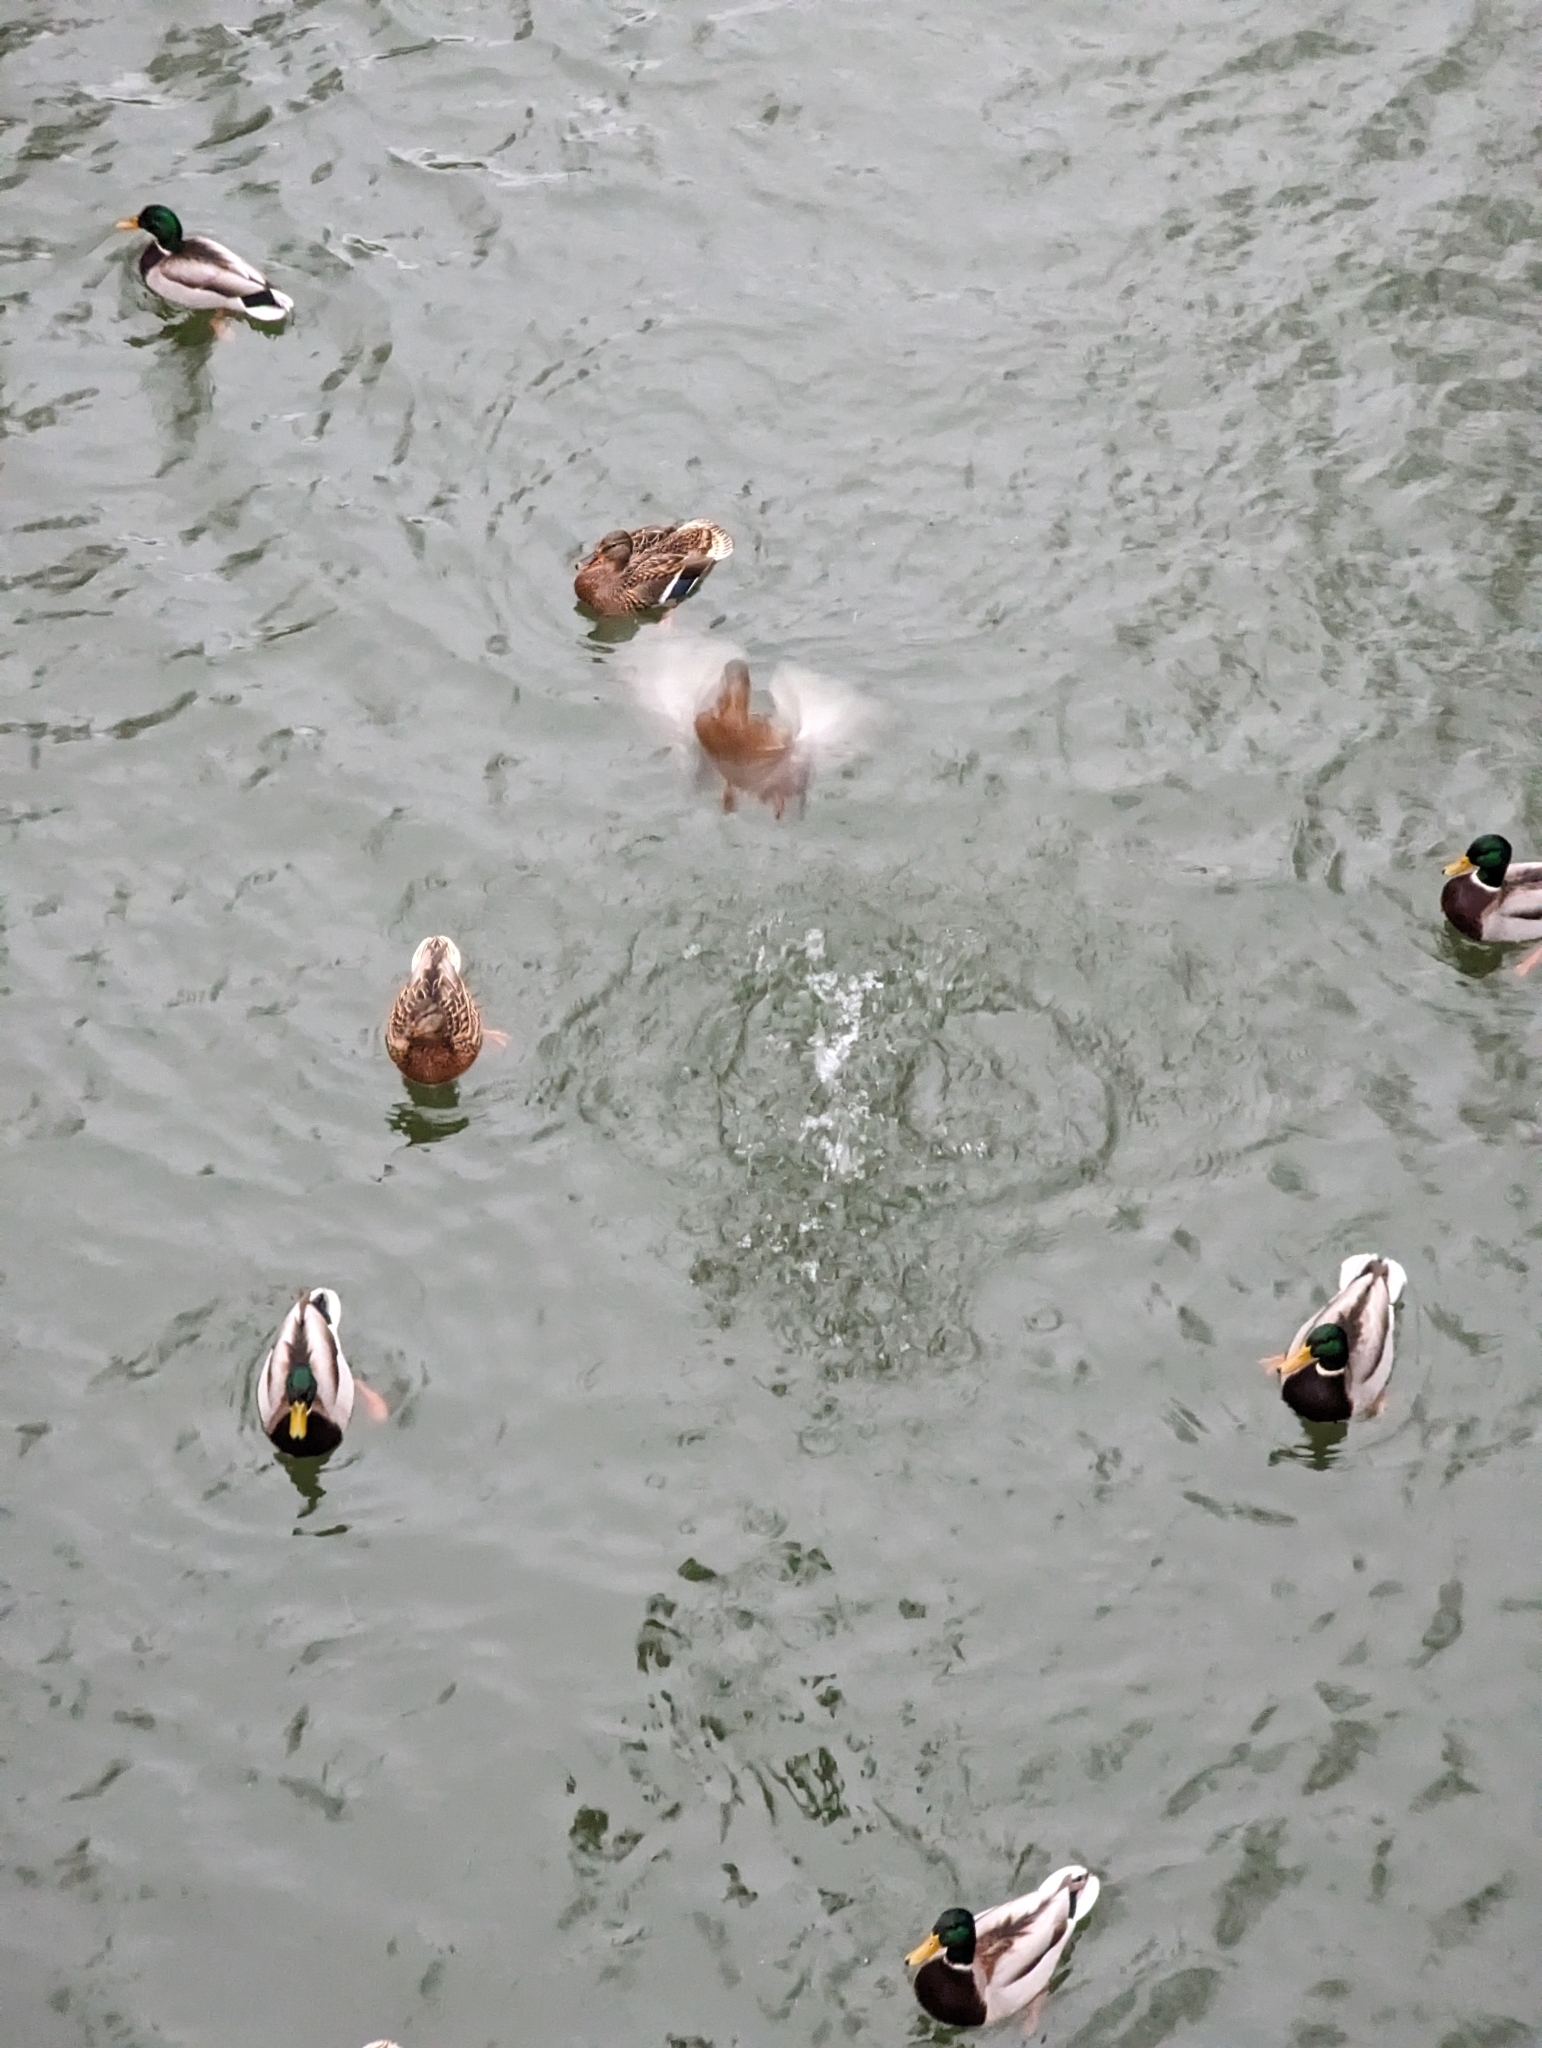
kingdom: Animalia
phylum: Chordata
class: Aves
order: Anseriformes
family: Anatidae
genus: Anas
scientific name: Anas platyrhynchos
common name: Mallard
